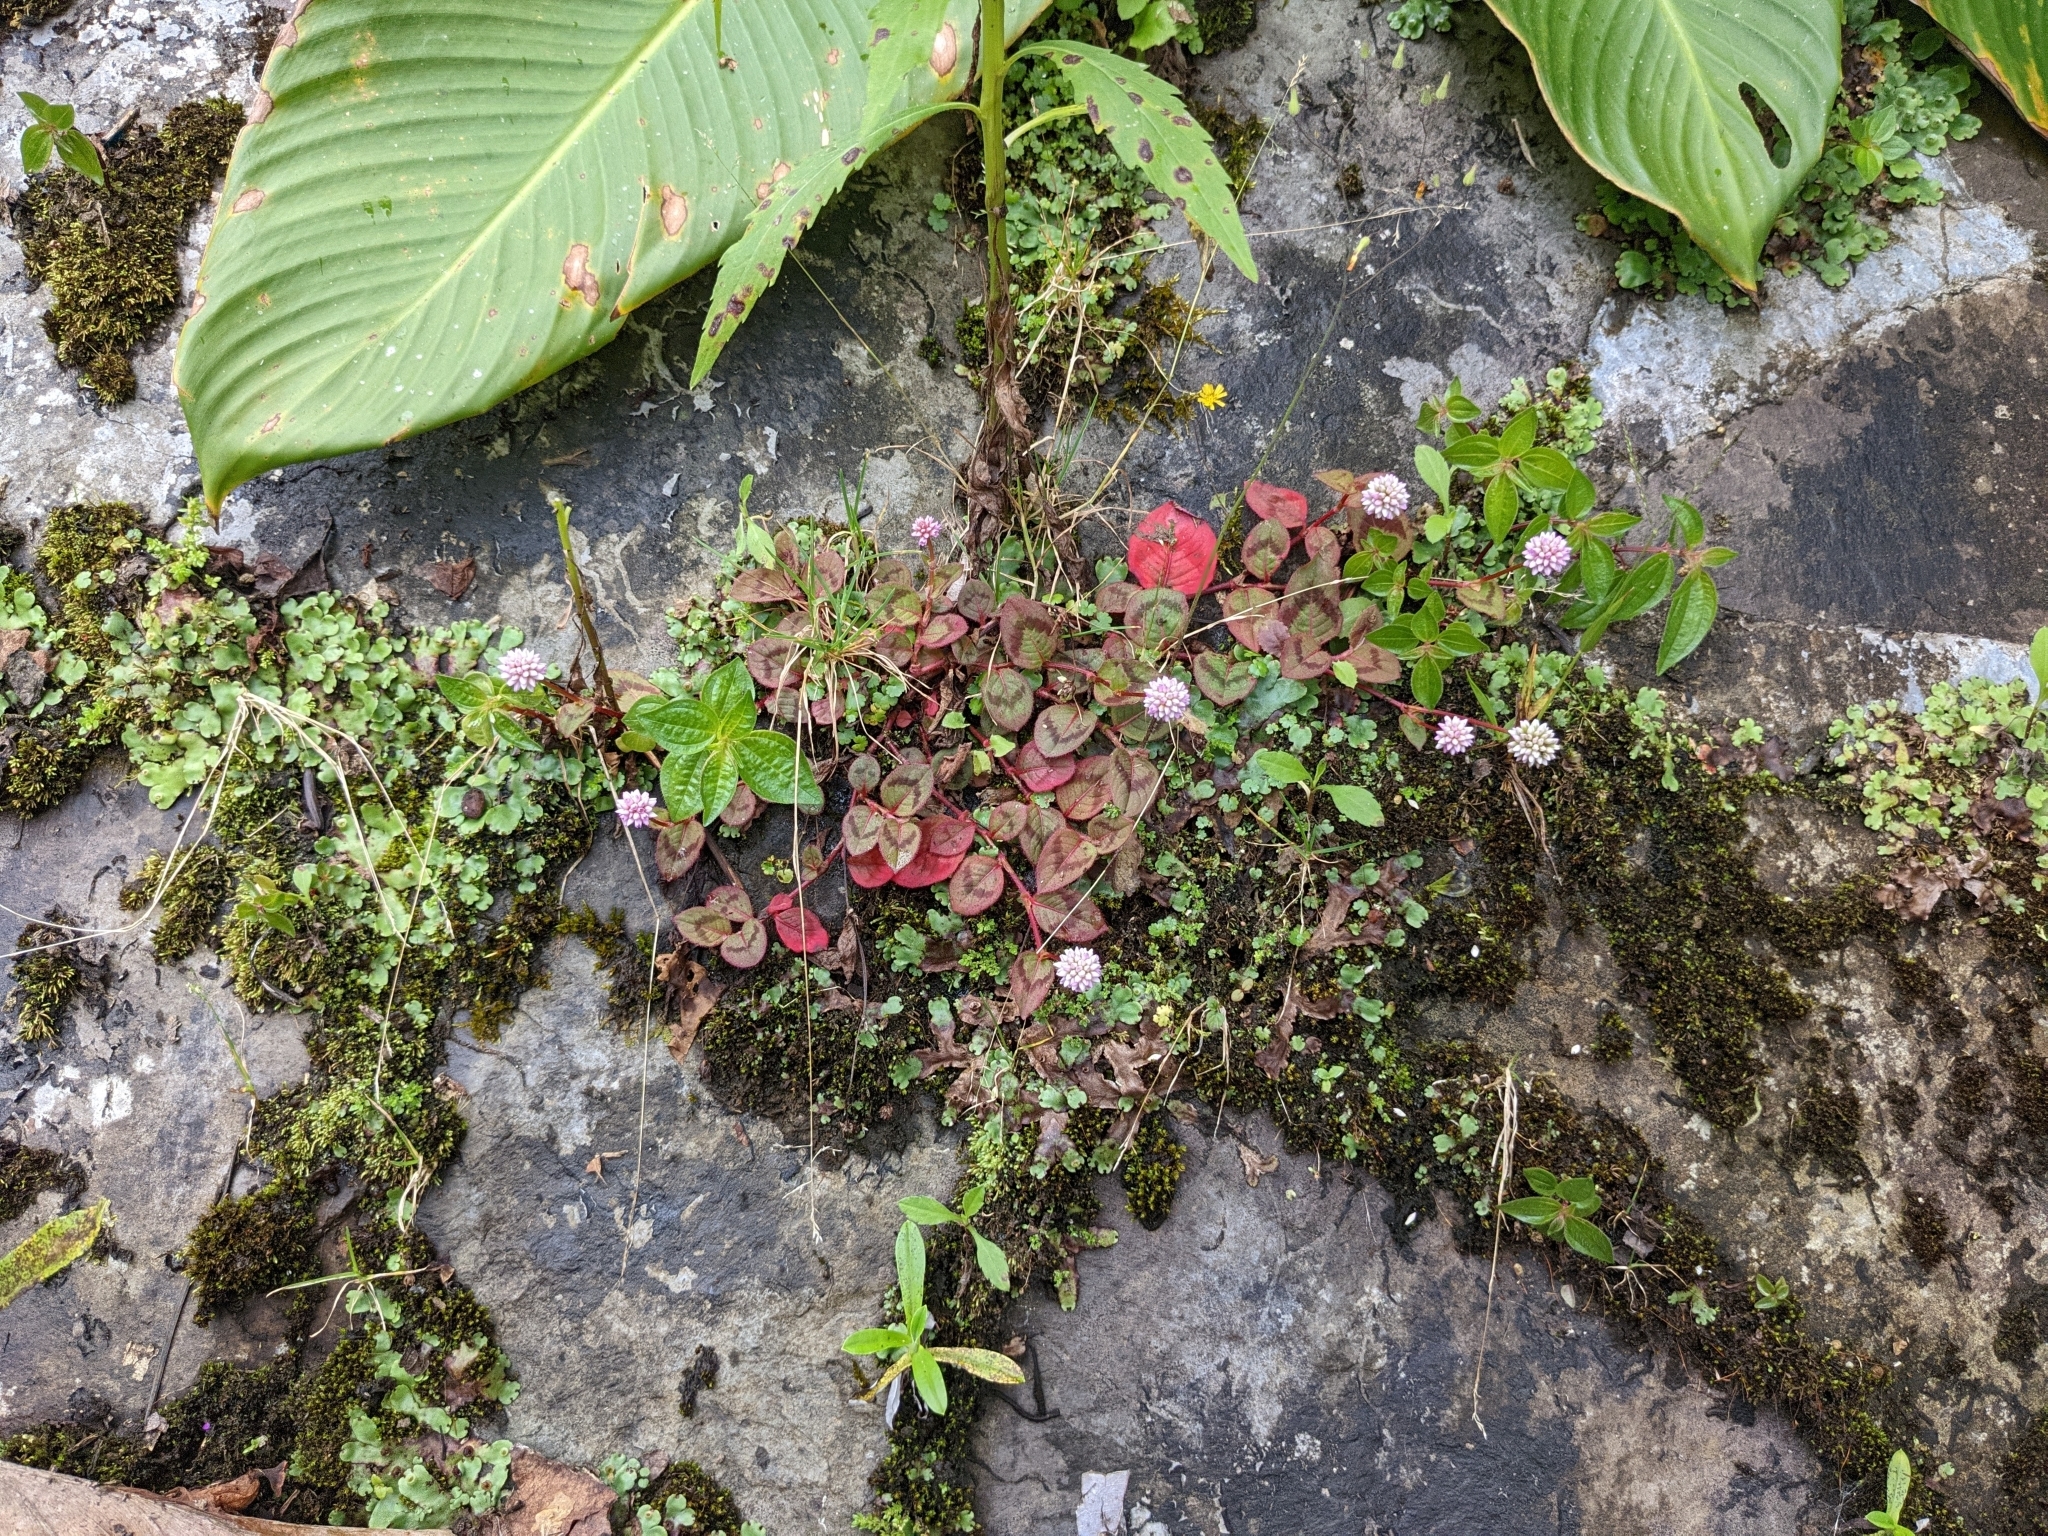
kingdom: Plantae
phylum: Tracheophyta
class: Magnoliopsida
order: Caryophyllales
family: Polygonaceae
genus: Persicaria
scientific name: Persicaria capitata
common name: Pinkhead smartweed
